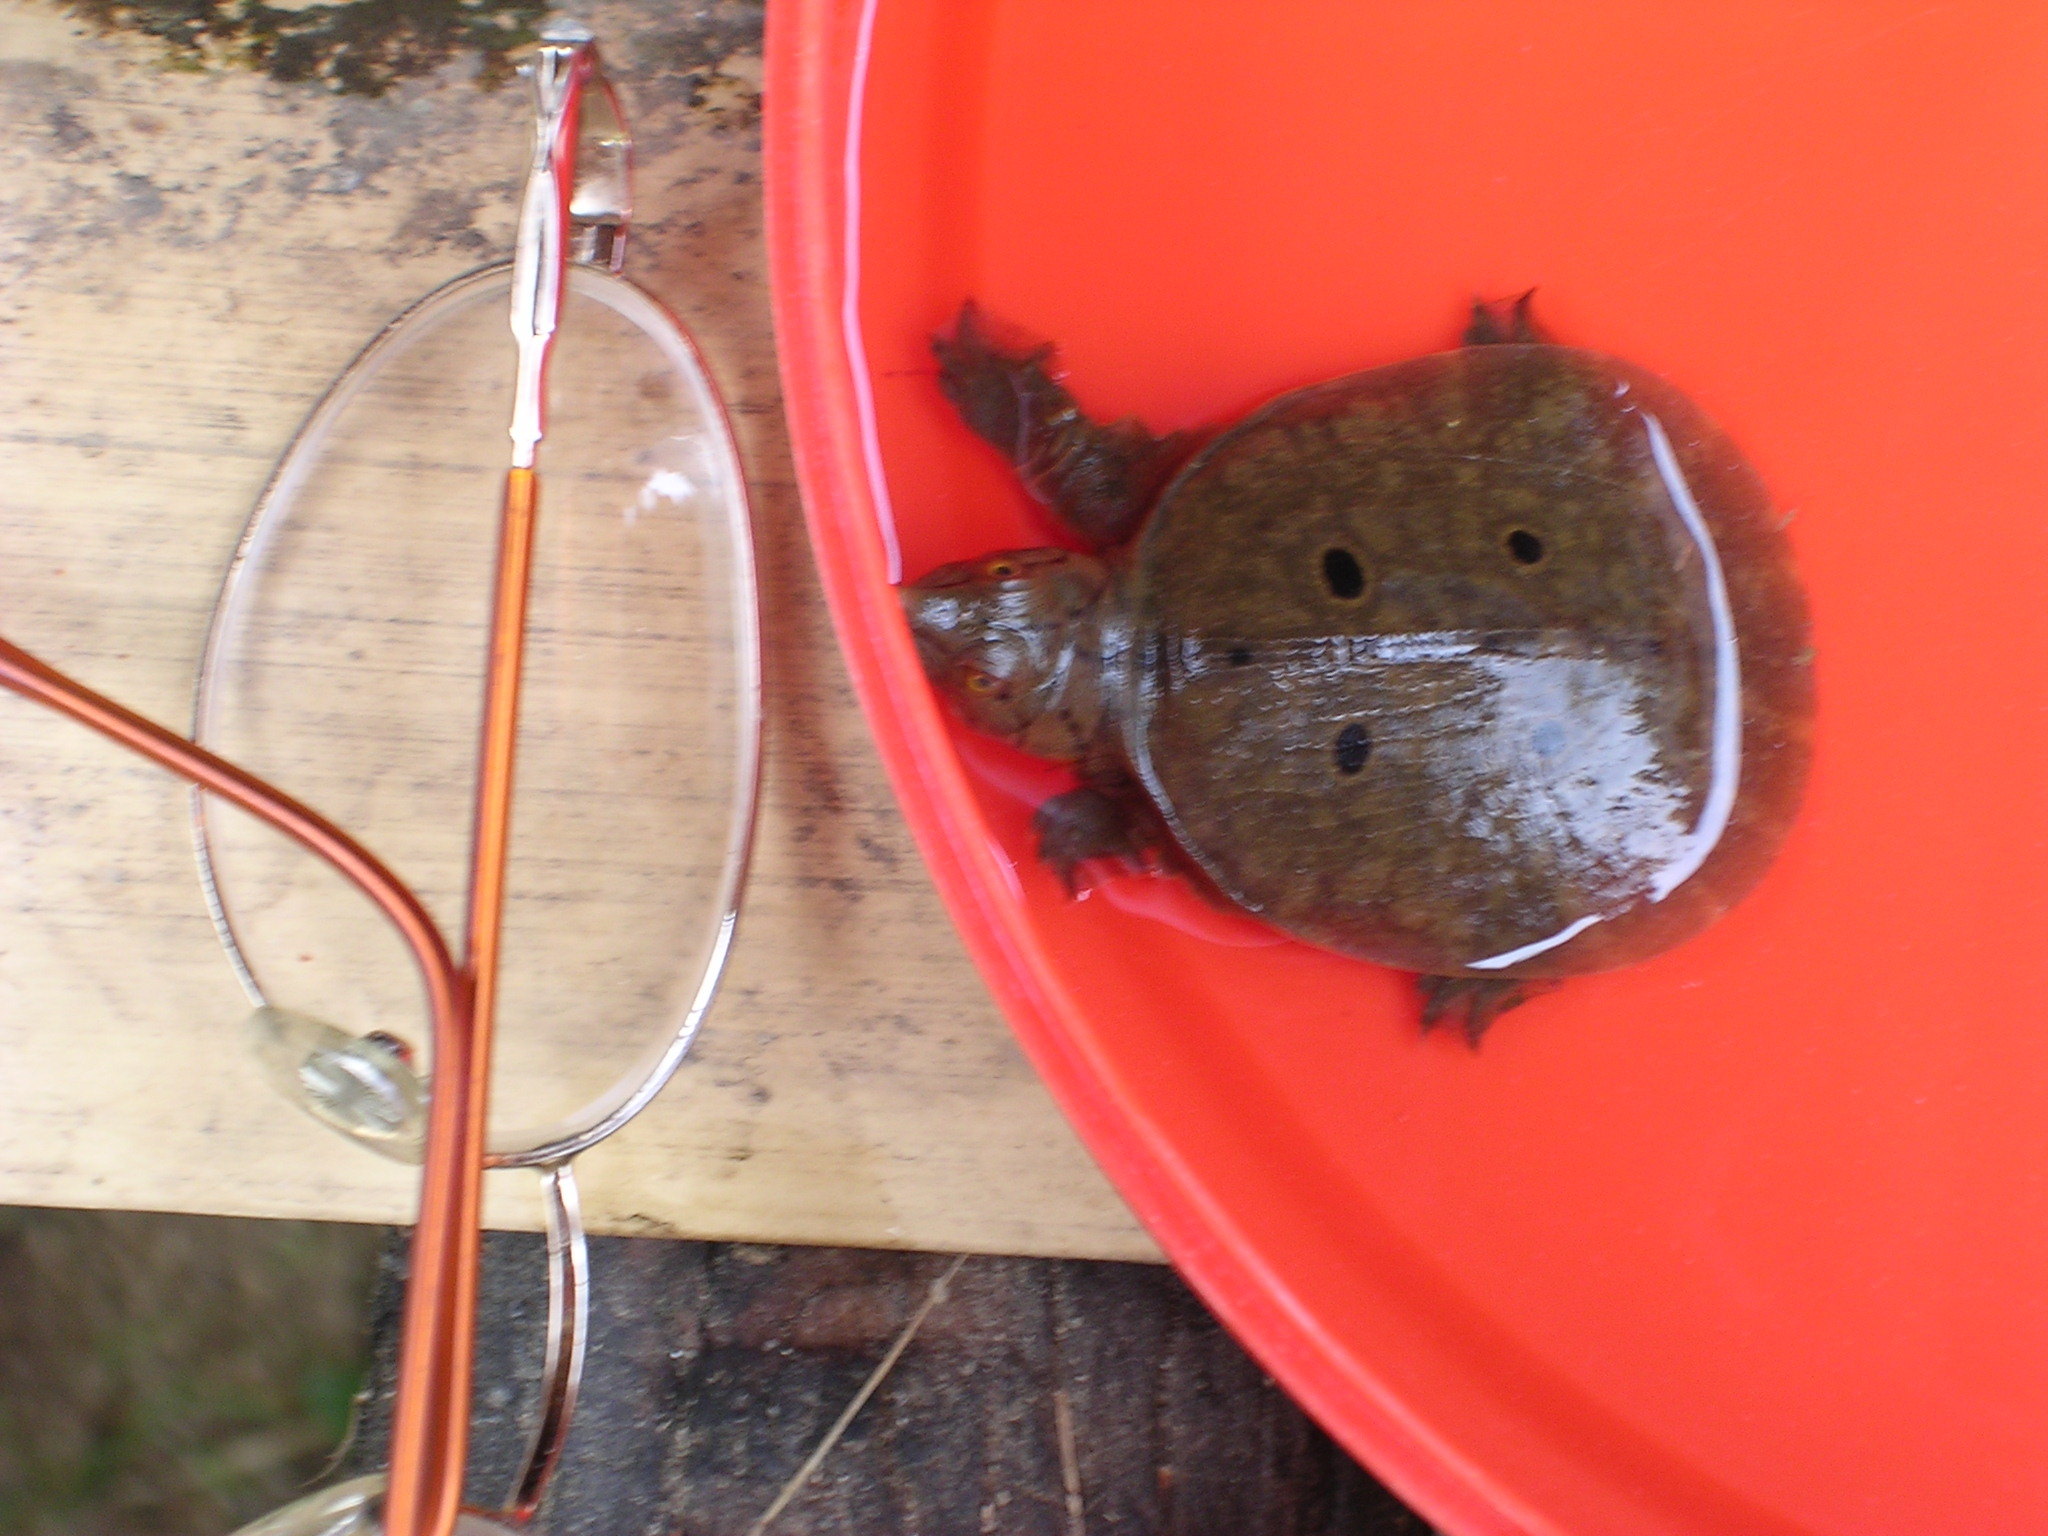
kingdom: Animalia
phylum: Chordata
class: Testudines
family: Trionychidae
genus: Dogania
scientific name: Dogania subplana
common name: Malayan soft-shelled turtle
